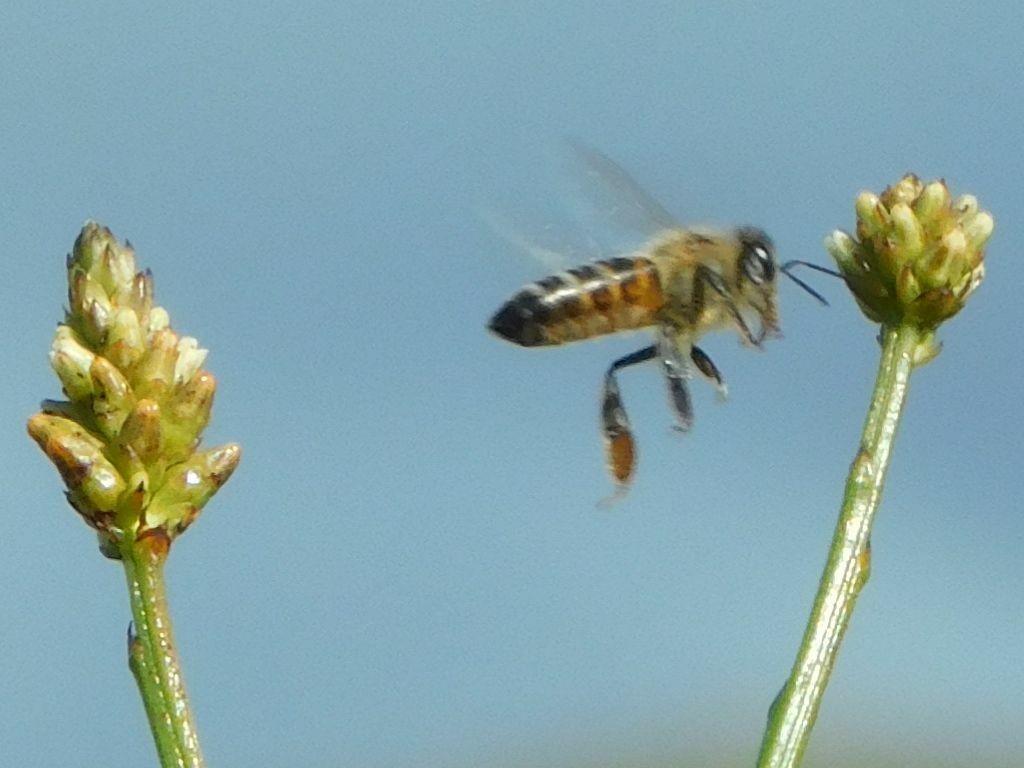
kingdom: Animalia
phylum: Arthropoda
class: Insecta
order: Hymenoptera
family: Apidae
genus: Apis
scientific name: Apis mellifera
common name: Honey bee
